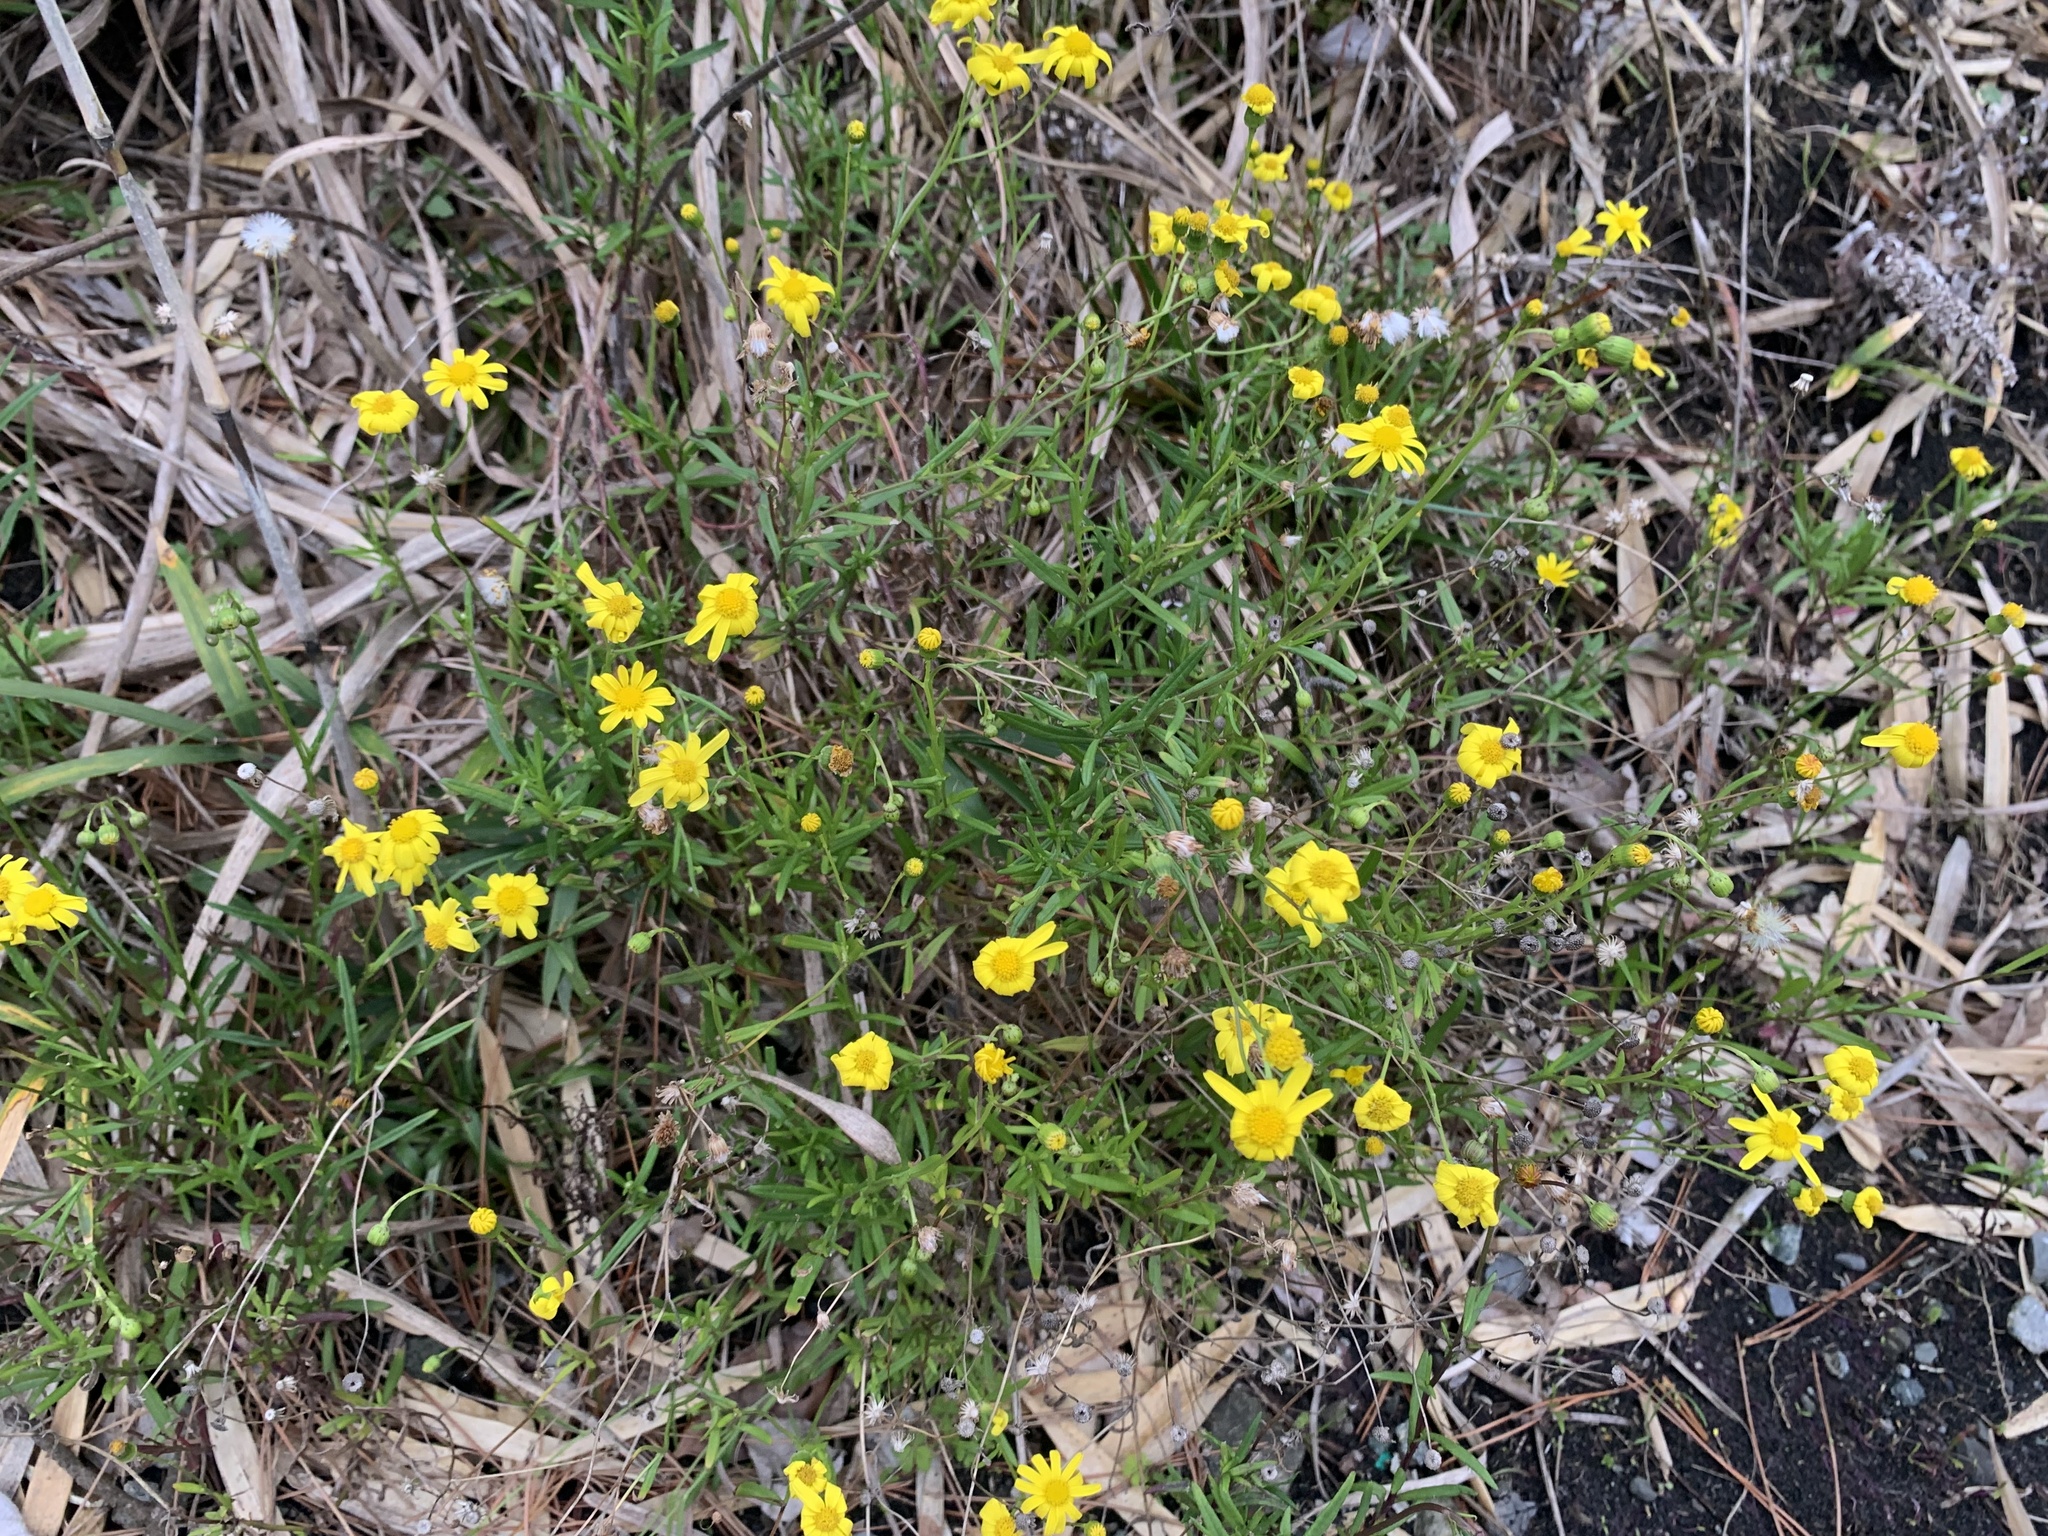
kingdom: Plantae
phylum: Tracheophyta
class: Magnoliopsida
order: Asterales
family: Asteraceae
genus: Senecio
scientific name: Senecio madagascariensis
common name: Madagascar ragwort
